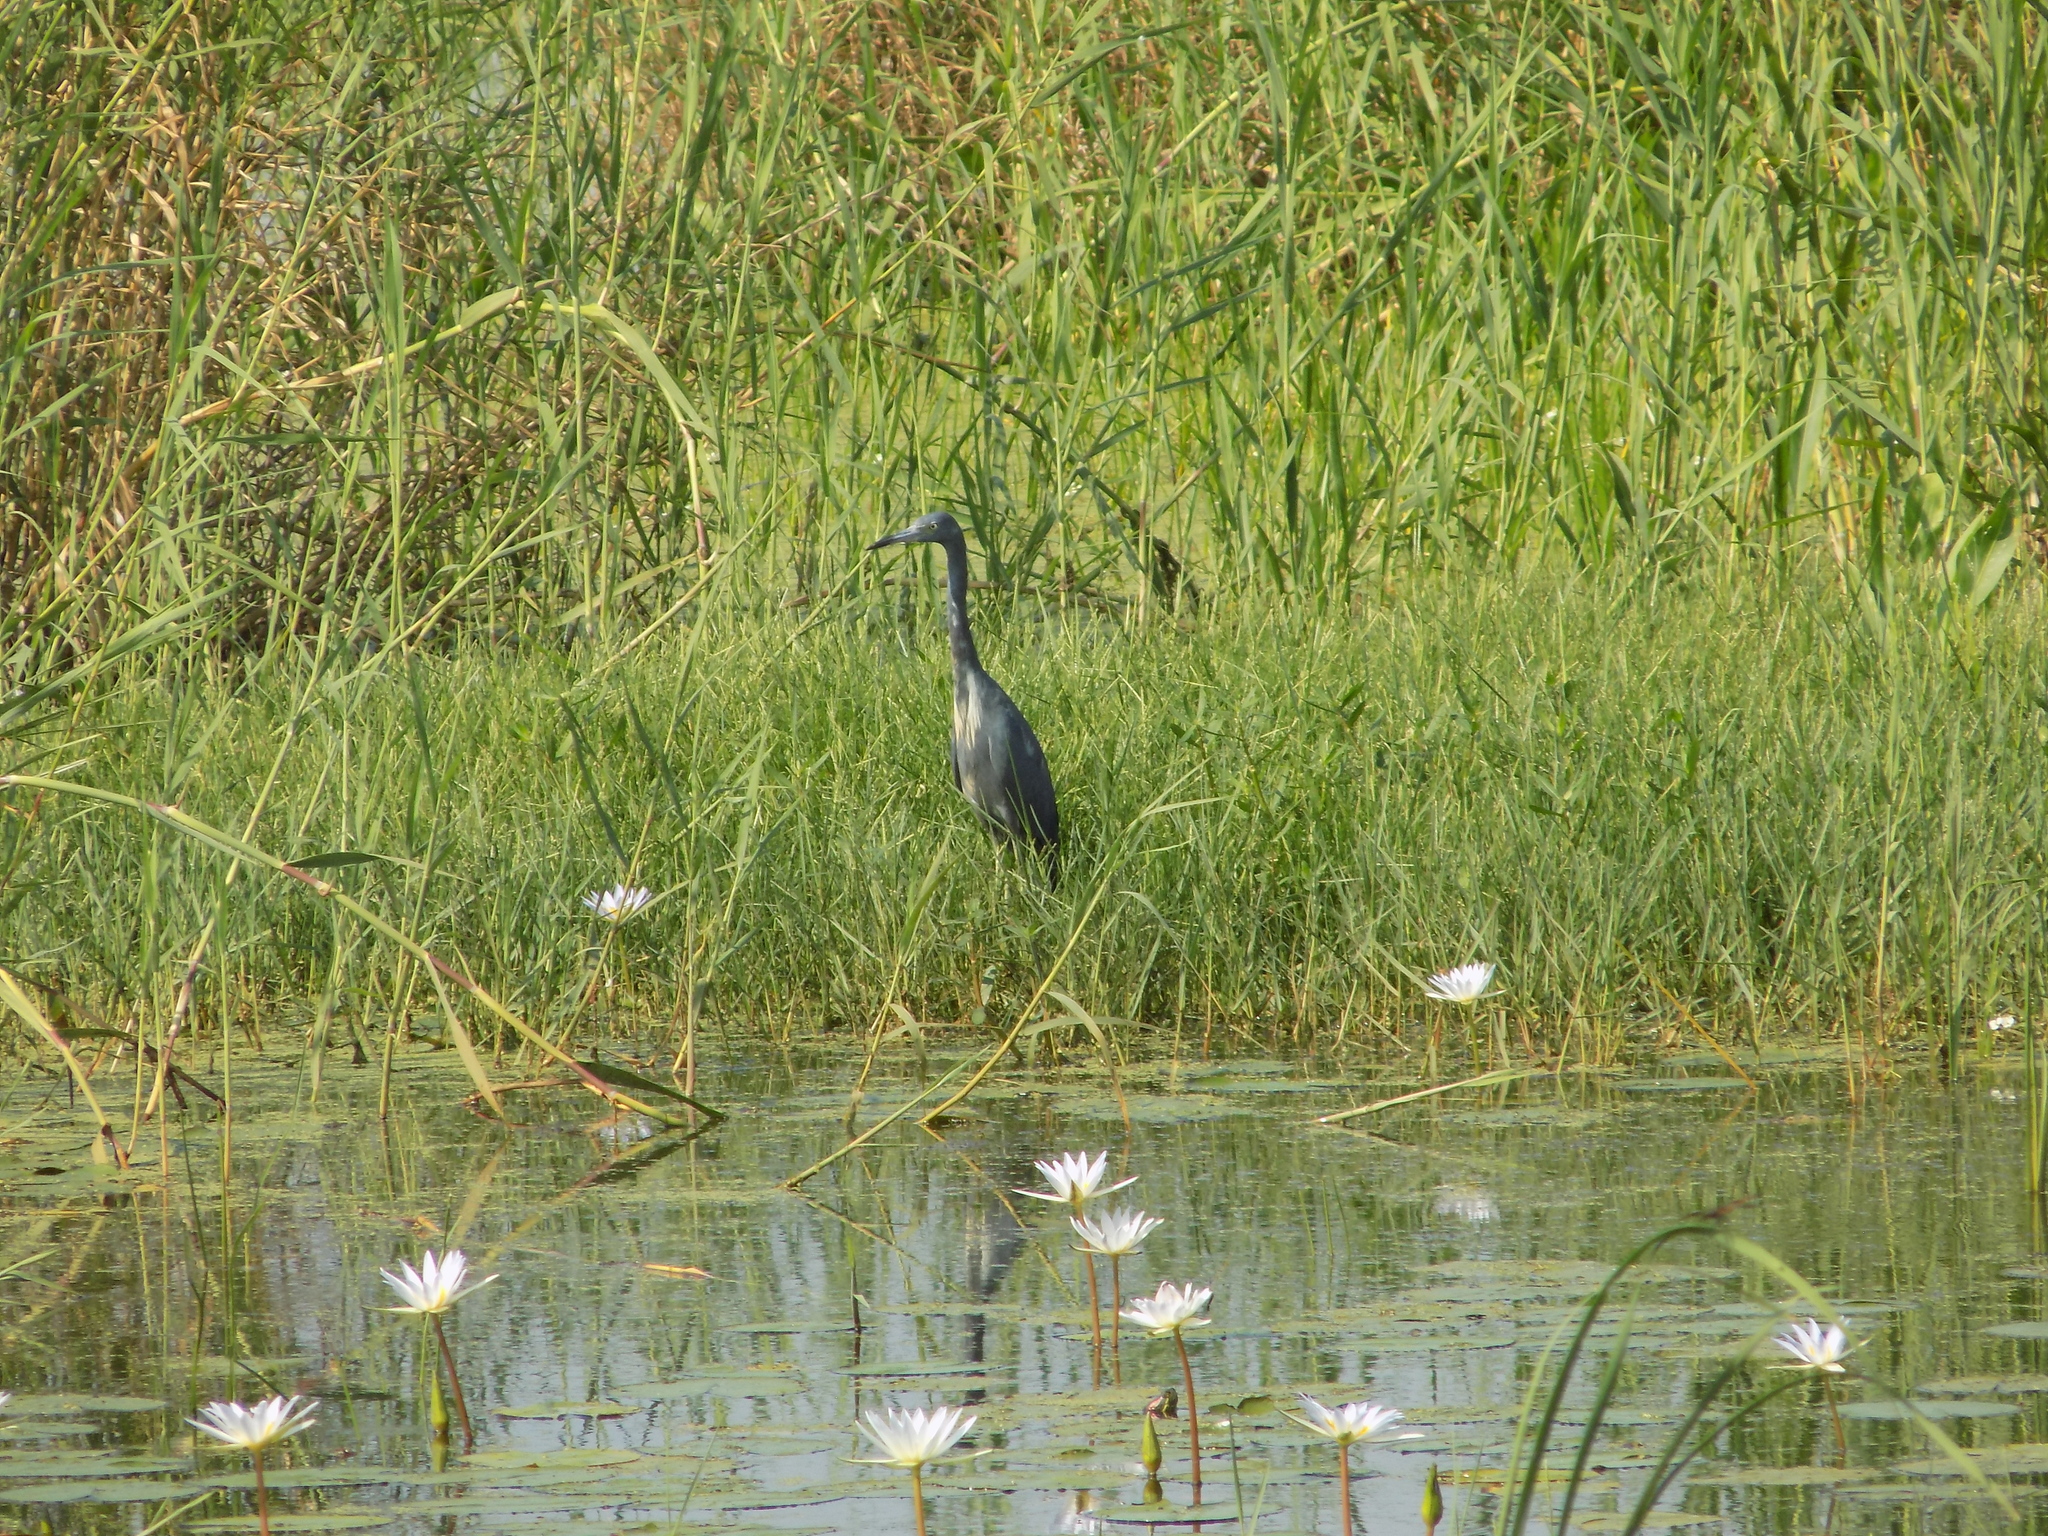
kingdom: Animalia
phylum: Chordata
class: Aves
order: Pelecaniformes
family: Ardeidae
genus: Egretta
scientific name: Egretta caerulea
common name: Little blue heron
